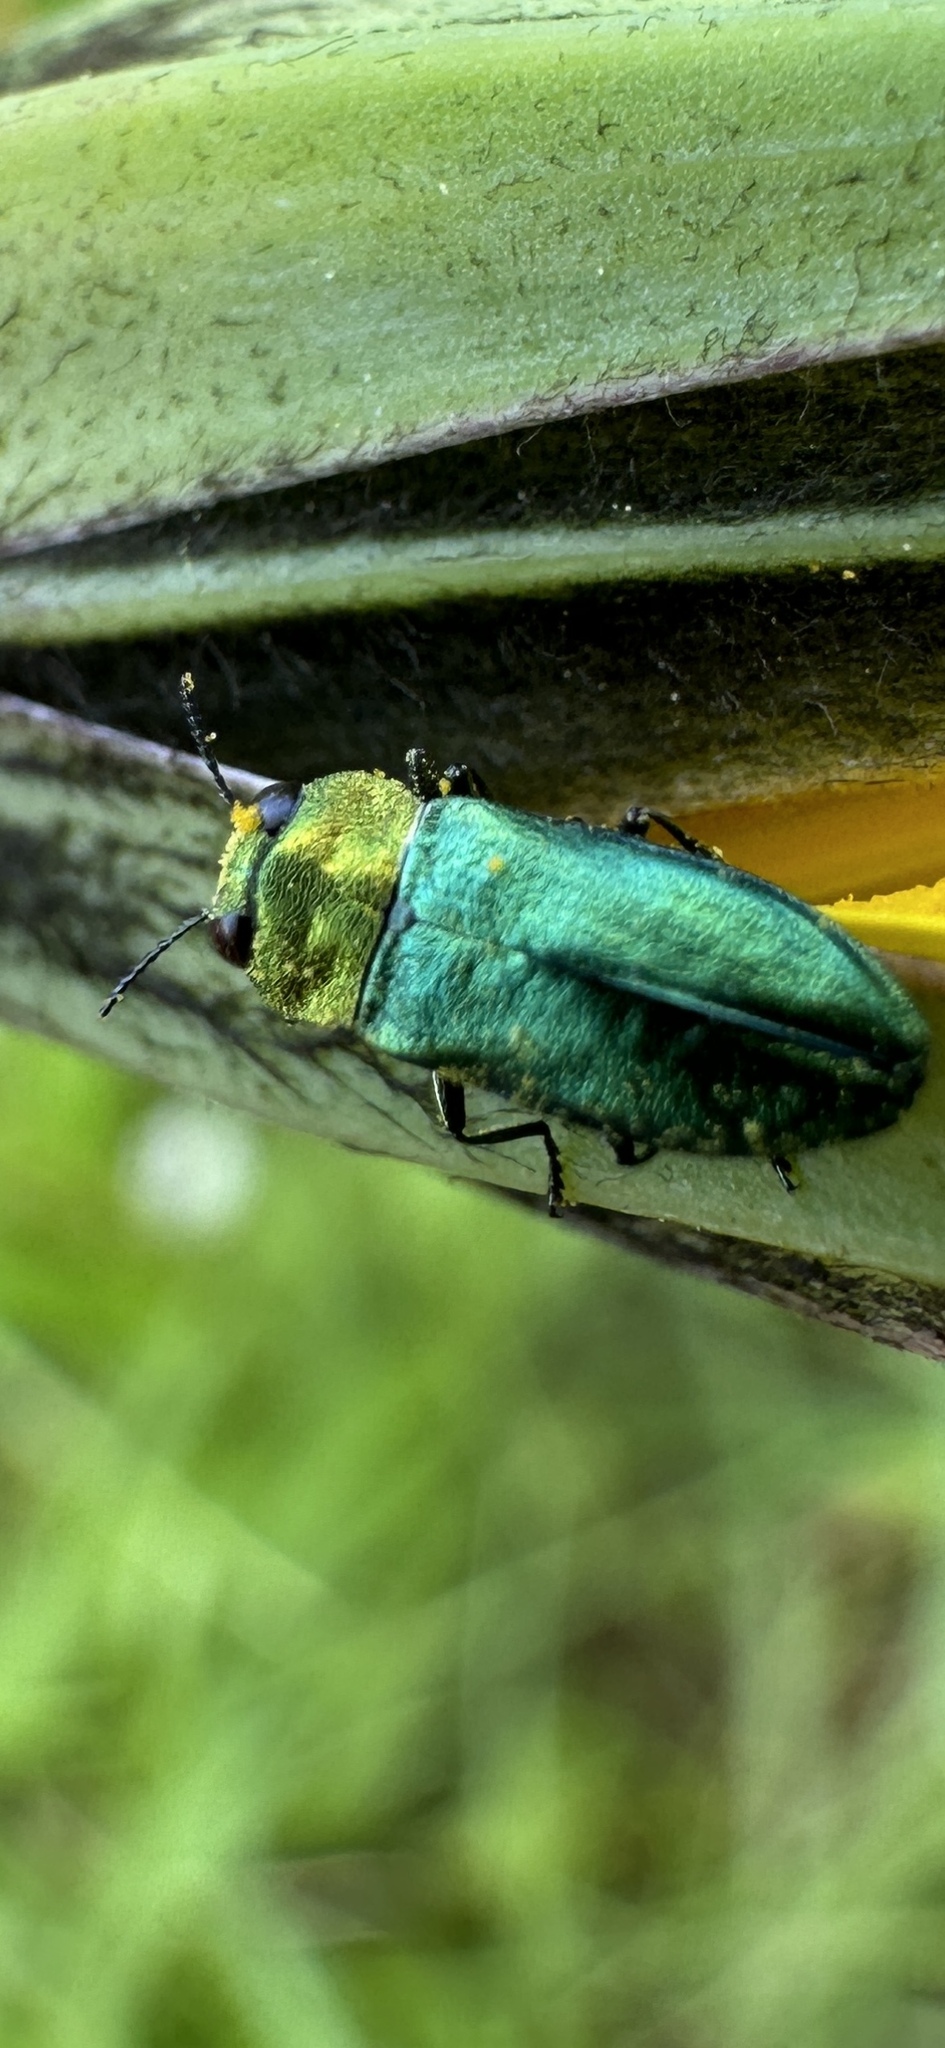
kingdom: Animalia
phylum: Arthropoda
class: Insecta
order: Coleoptera
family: Buprestidae
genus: Anthaxia
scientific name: Anthaxia nitidula
